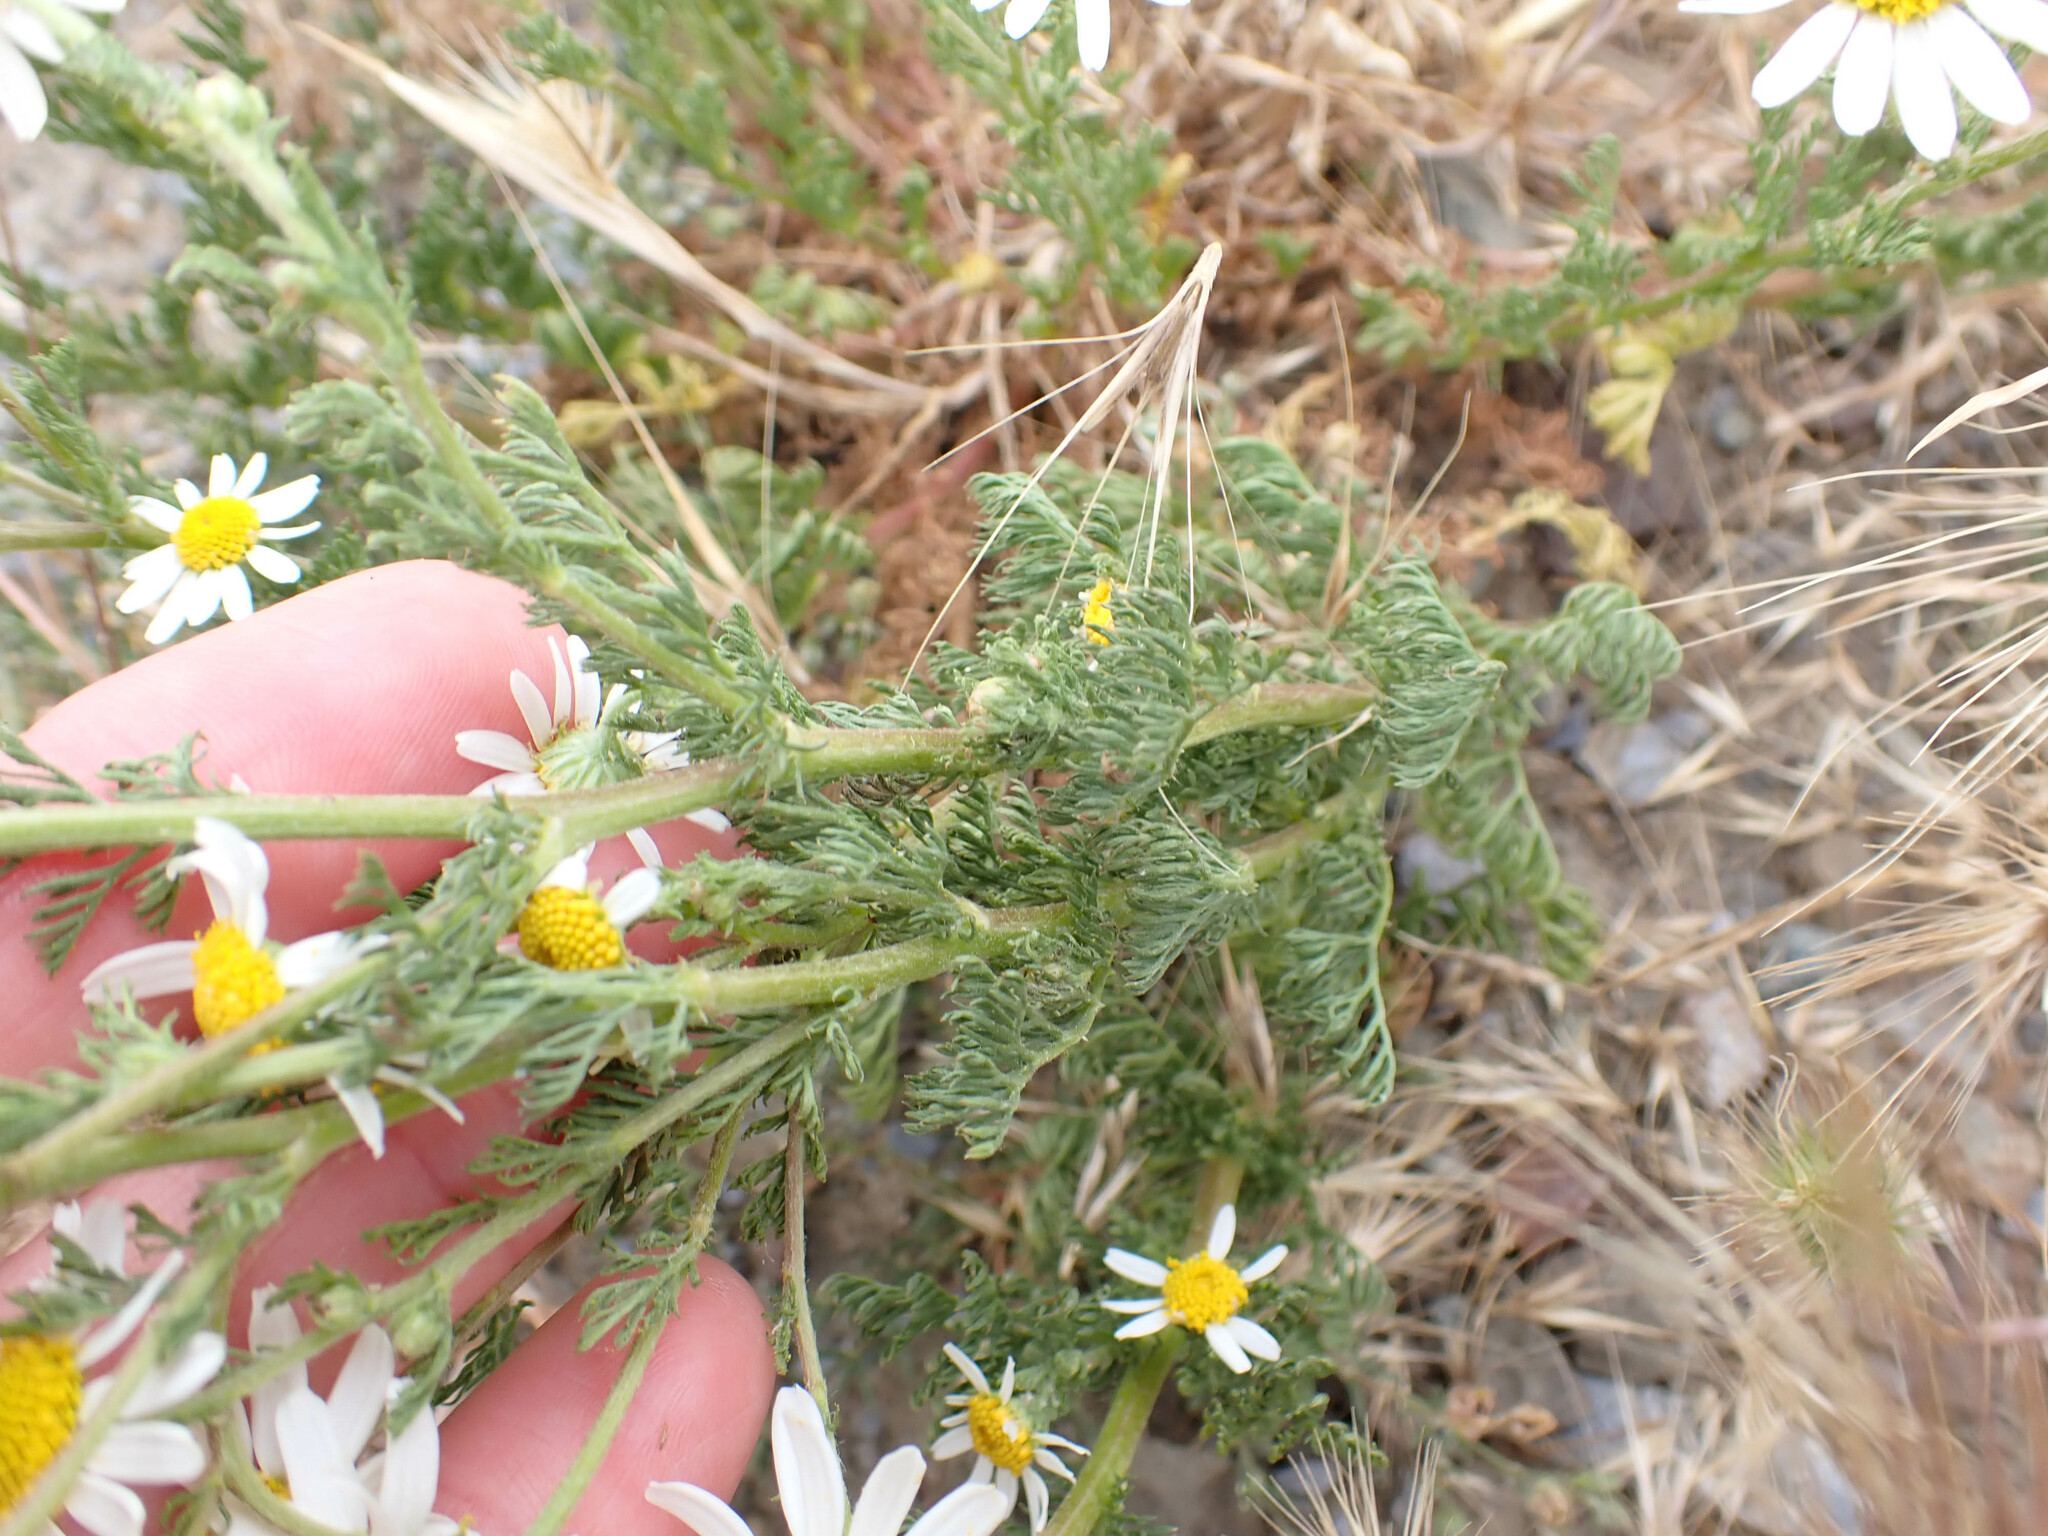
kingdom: Plantae
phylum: Tracheophyta
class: Magnoliopsida
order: Asterales
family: Asteraceae
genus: Anthemis
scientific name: Anthemis cotula
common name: Stinking chamomile
